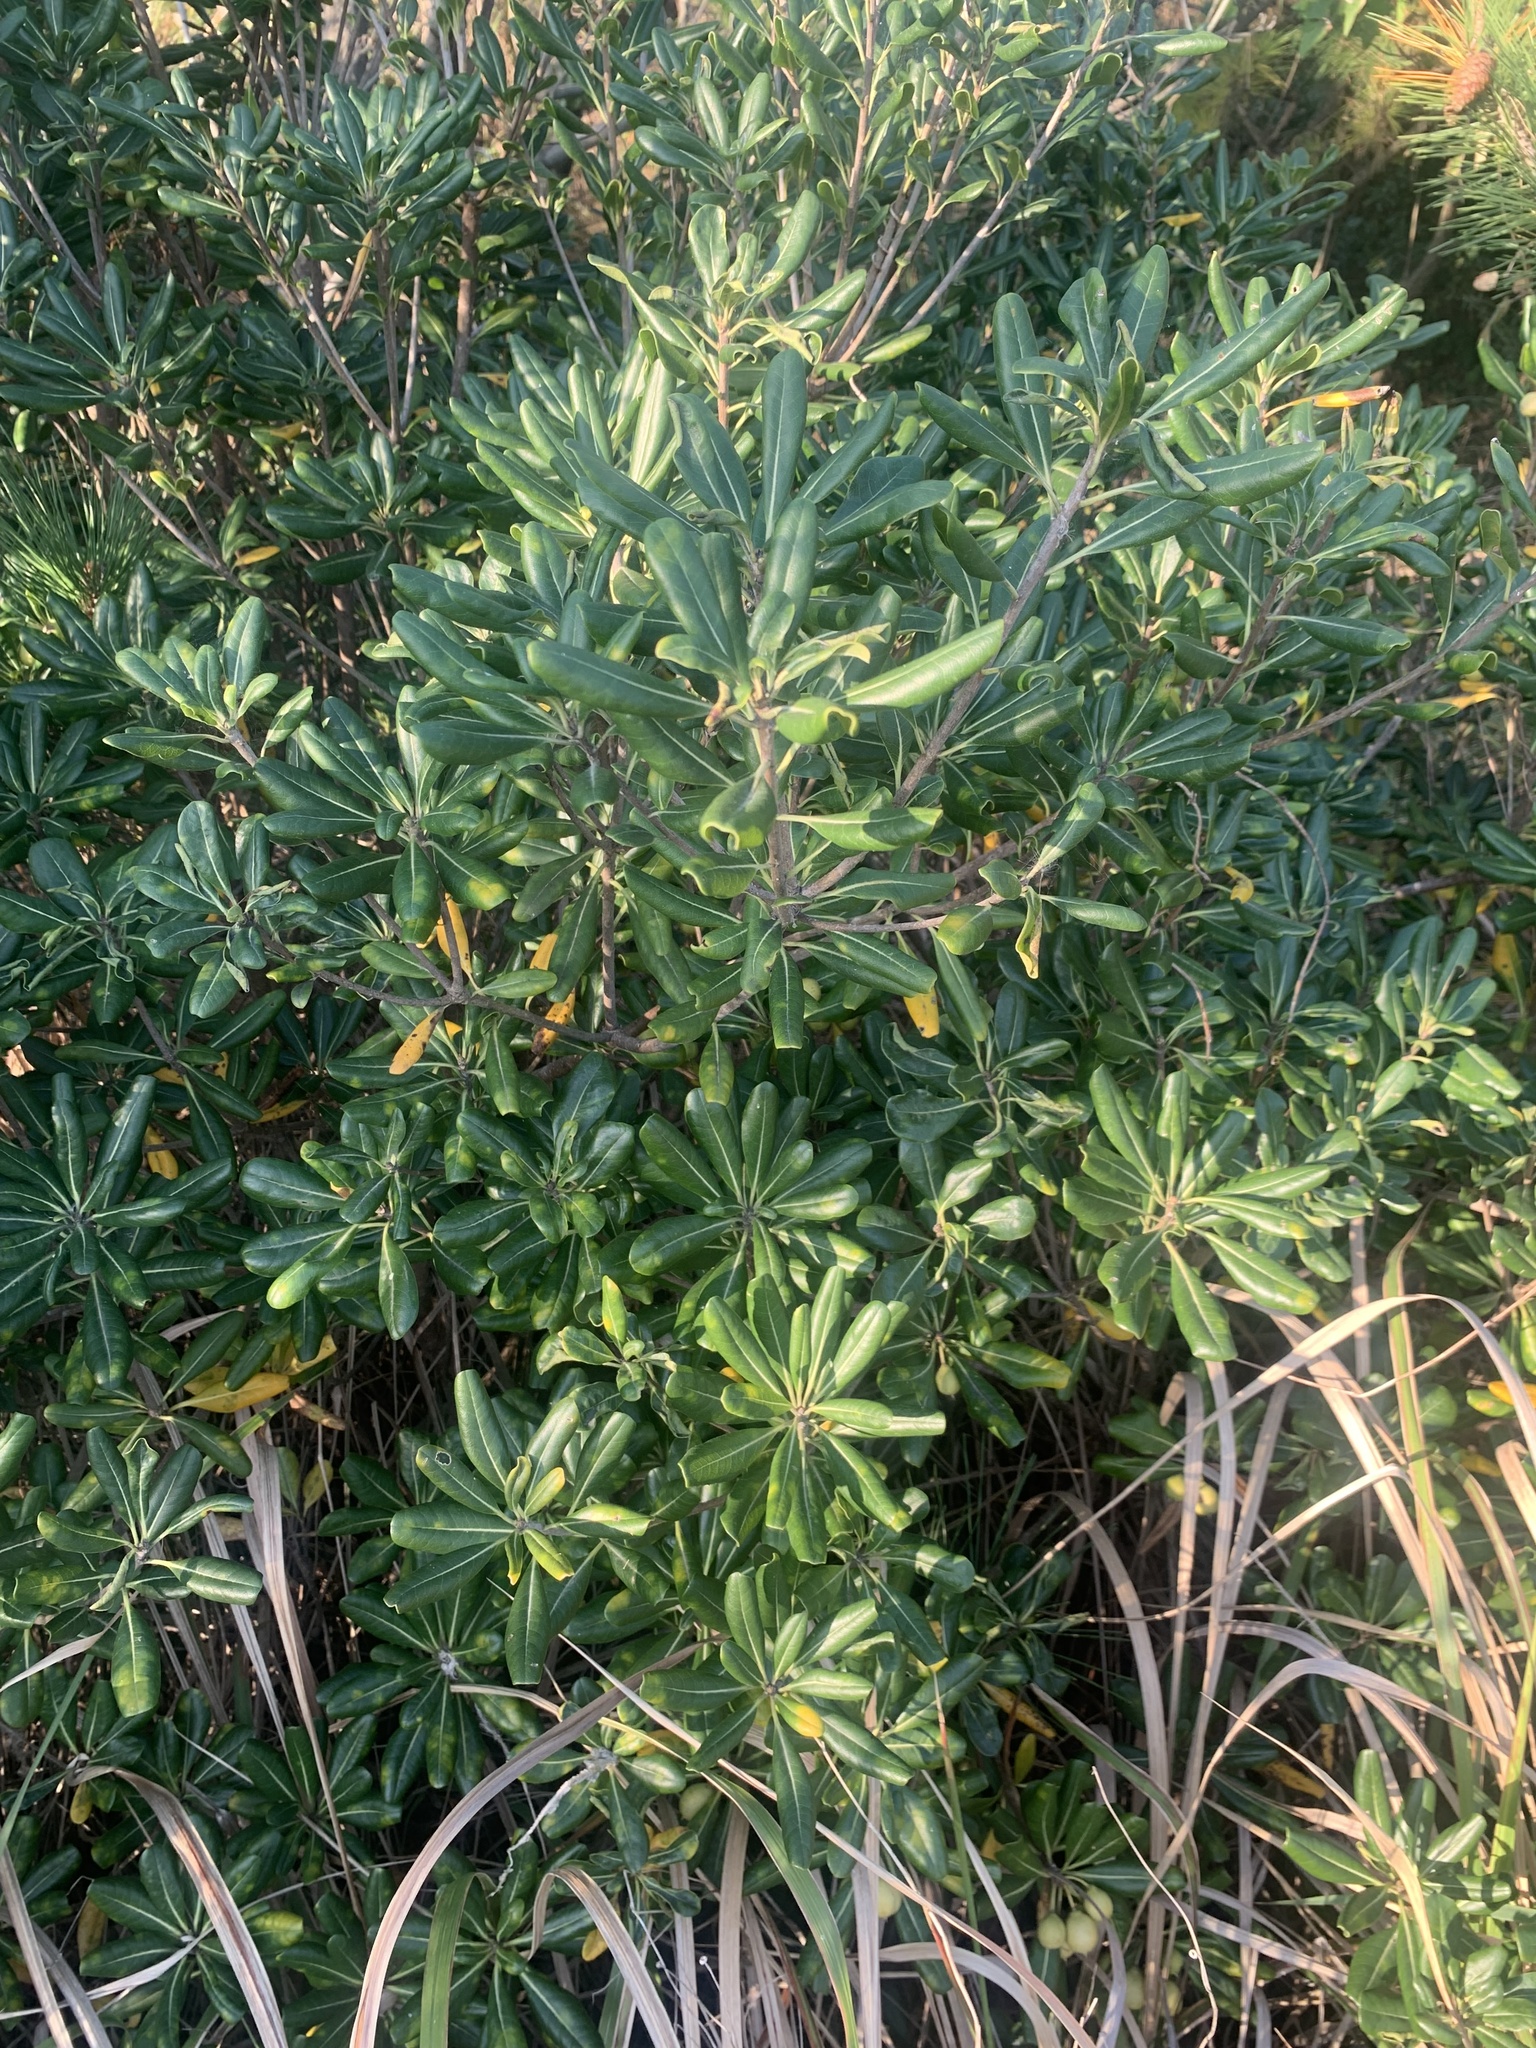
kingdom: Plantae
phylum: Tracheophyta
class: Magnoliopsida
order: Apiales
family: Pittosporaceae
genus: Pittosporum
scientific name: Pittosporum tobira
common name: Japanese cheesewood
